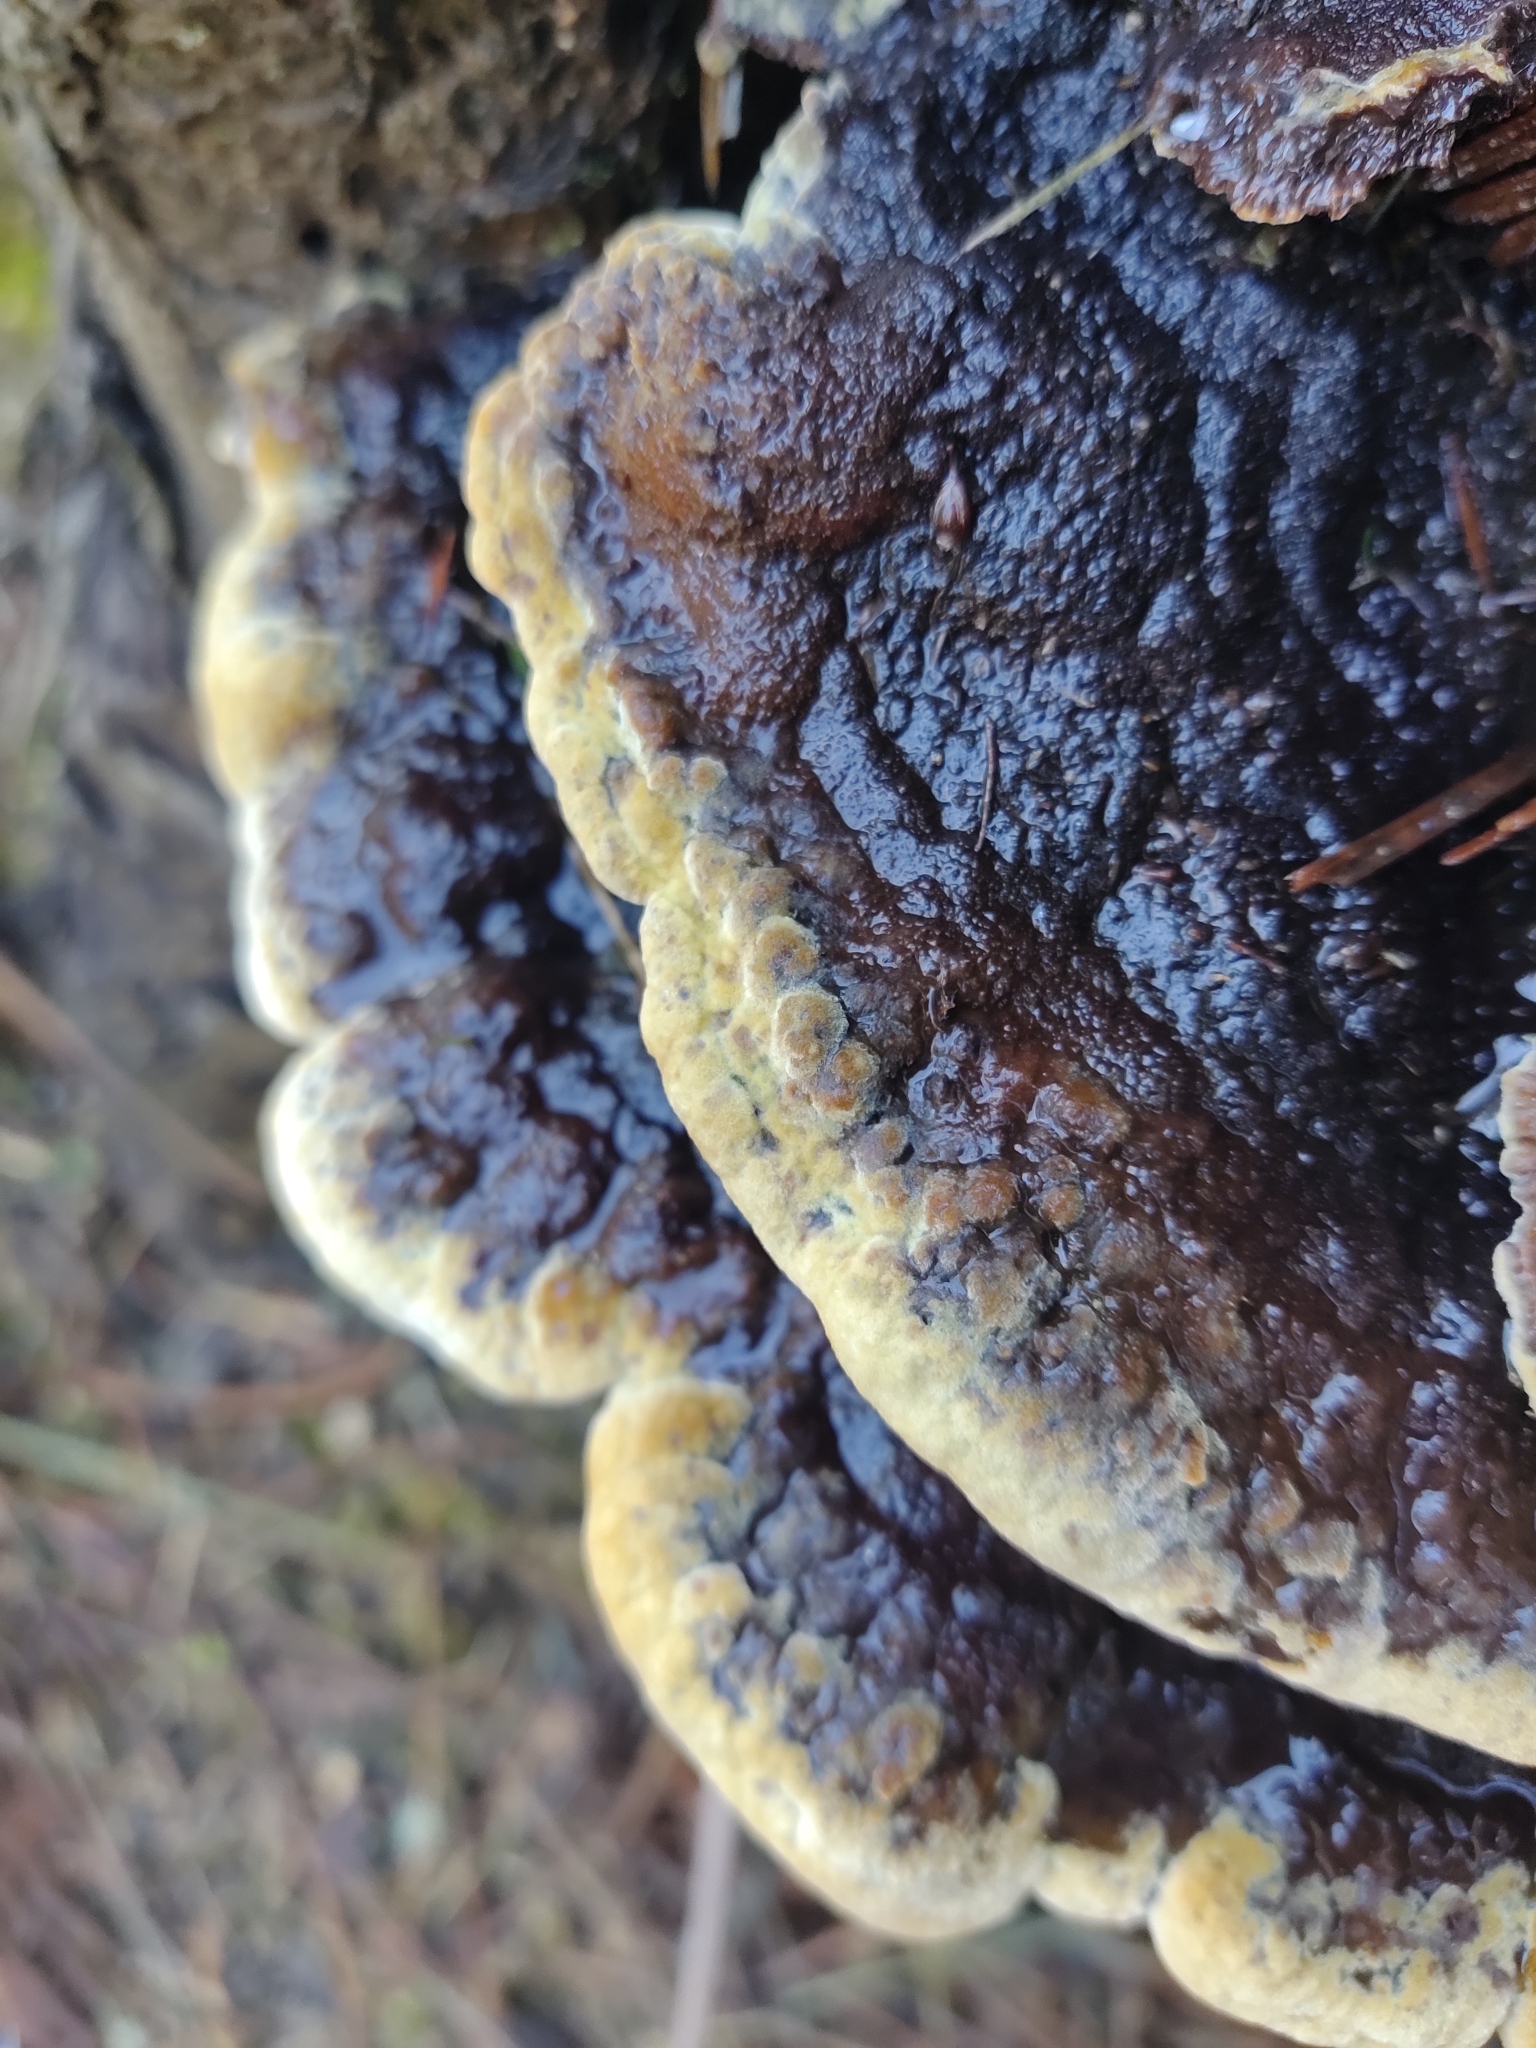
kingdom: Fungi
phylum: Basidiomycota
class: Agaricomycetes
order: Polyporales
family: Laetiporaceae
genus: Phaeolus
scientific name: Phaeolus schweinitzii
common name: Dyer's mazegill
